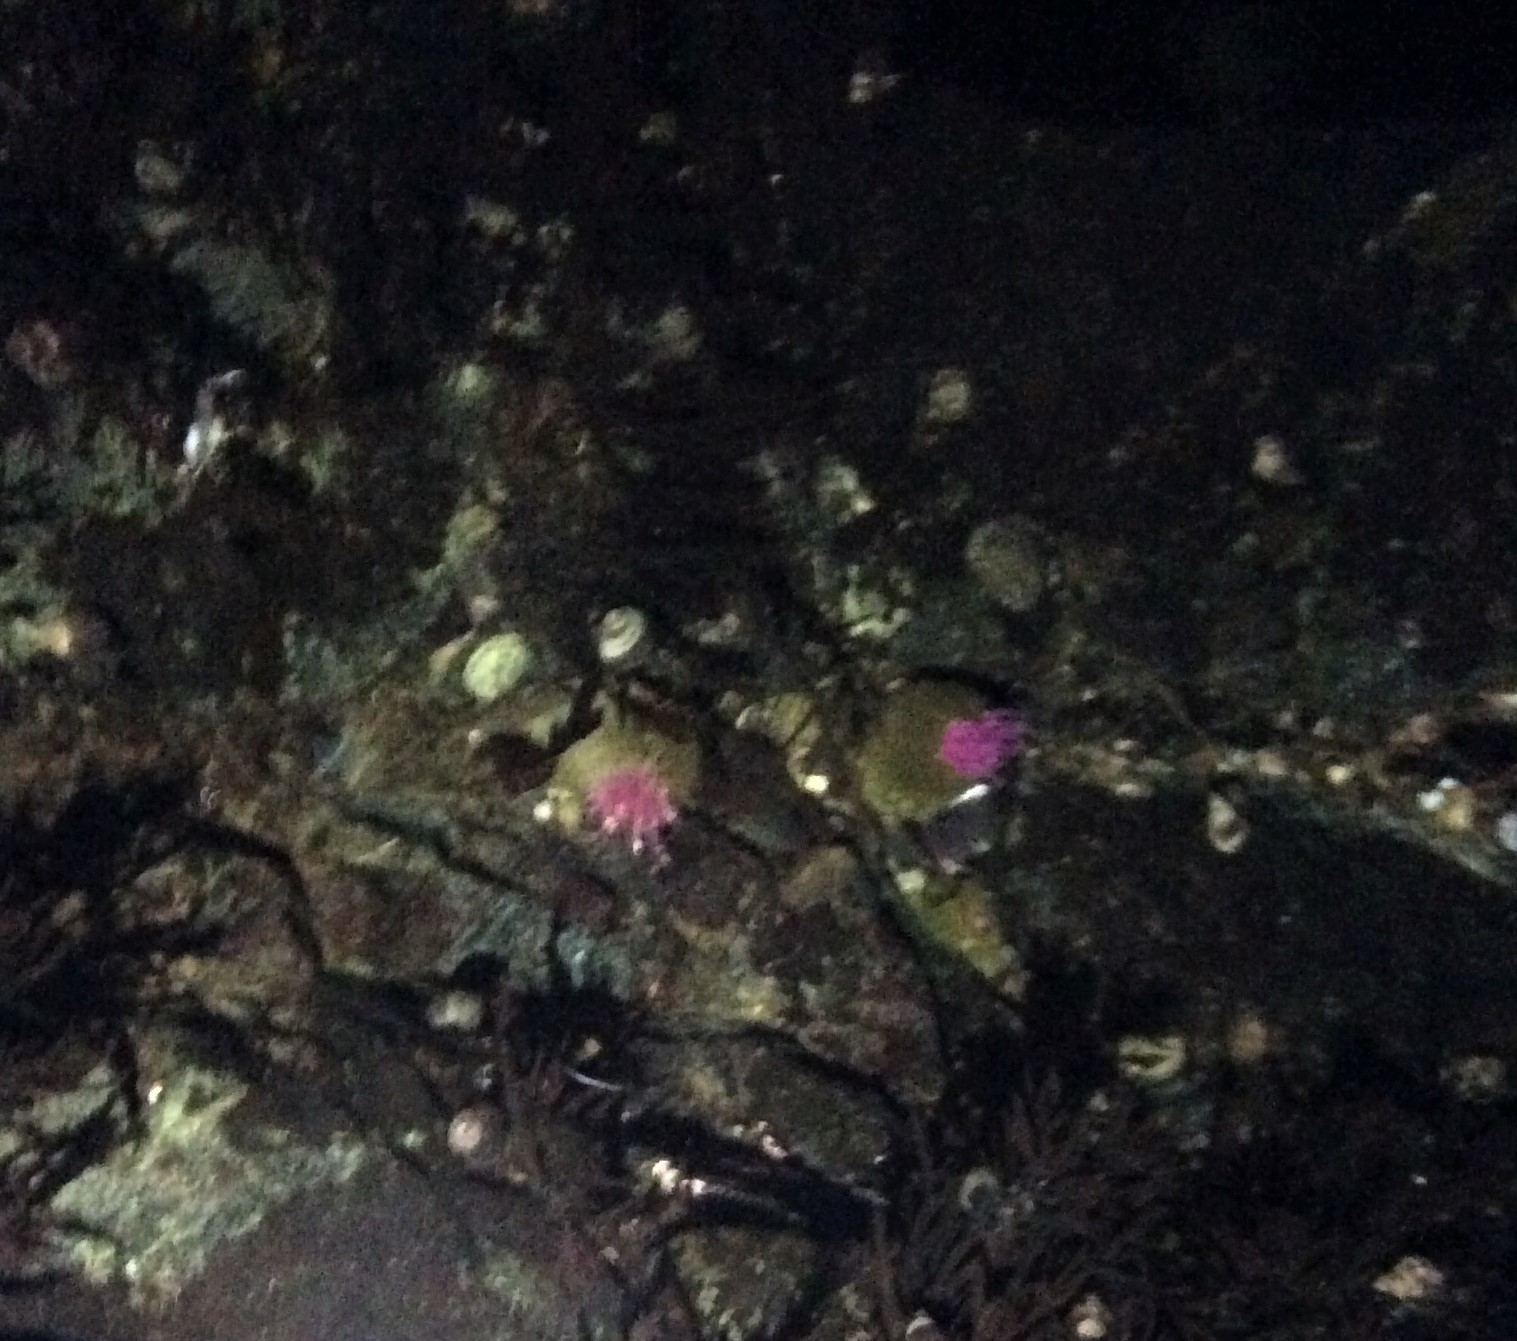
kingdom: Animalia
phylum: Cnidaria
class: Anthozoa
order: Actiniaria
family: Actiniidae
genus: Anthopleura
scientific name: Anthopleura elegantissima
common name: Clonal anemone
